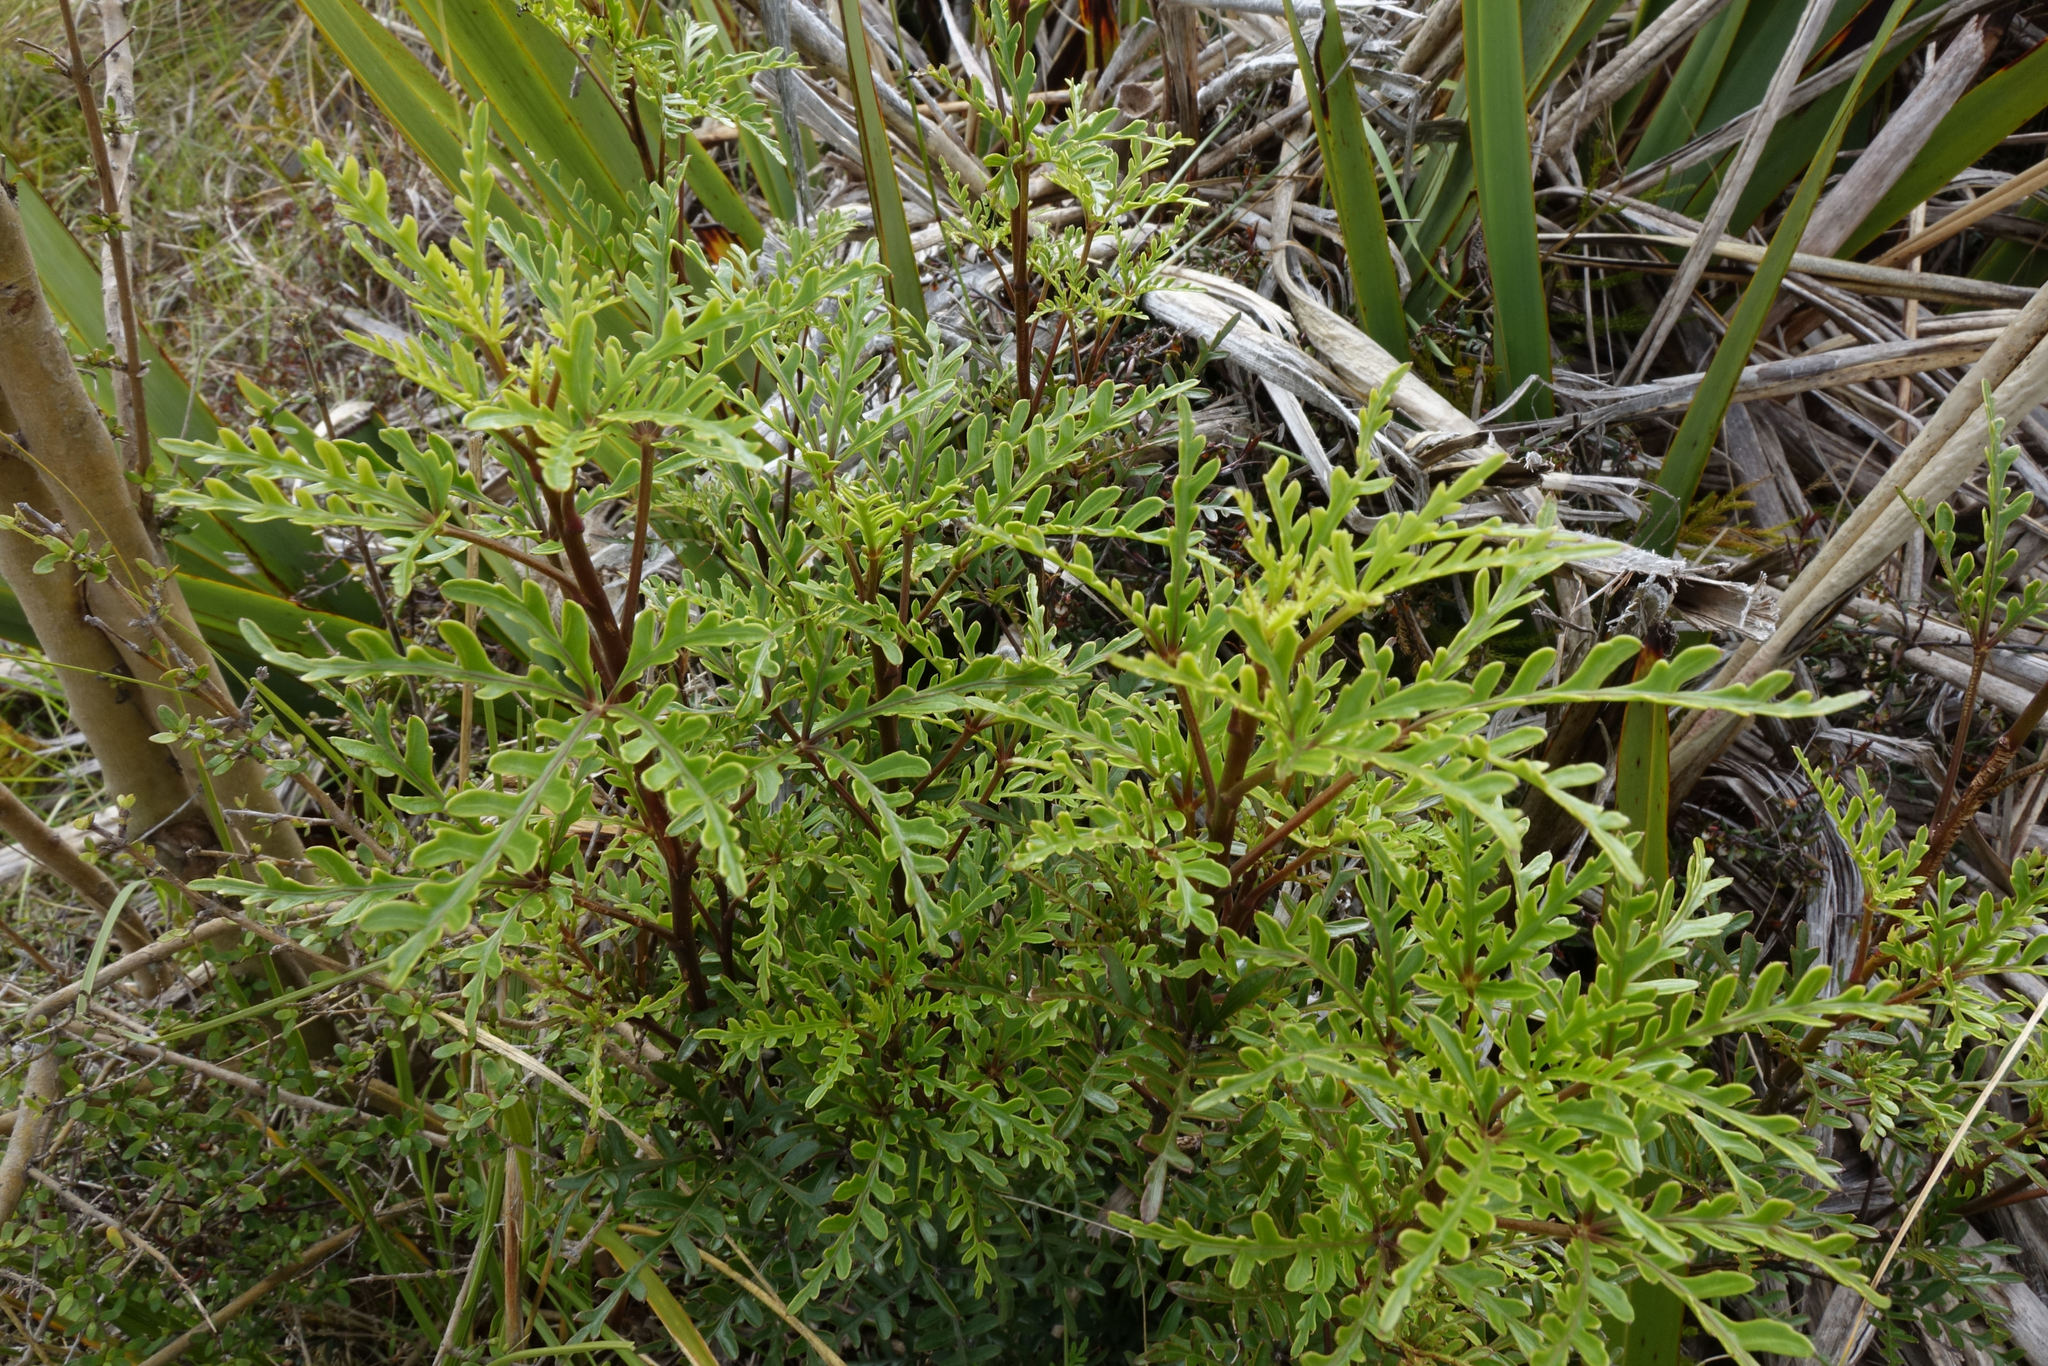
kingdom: Plantae
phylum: Tracheophyta
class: Magnoliopsida
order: Apiales
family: Araliaceae
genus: Raukaua
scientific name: Raukaua simplex
